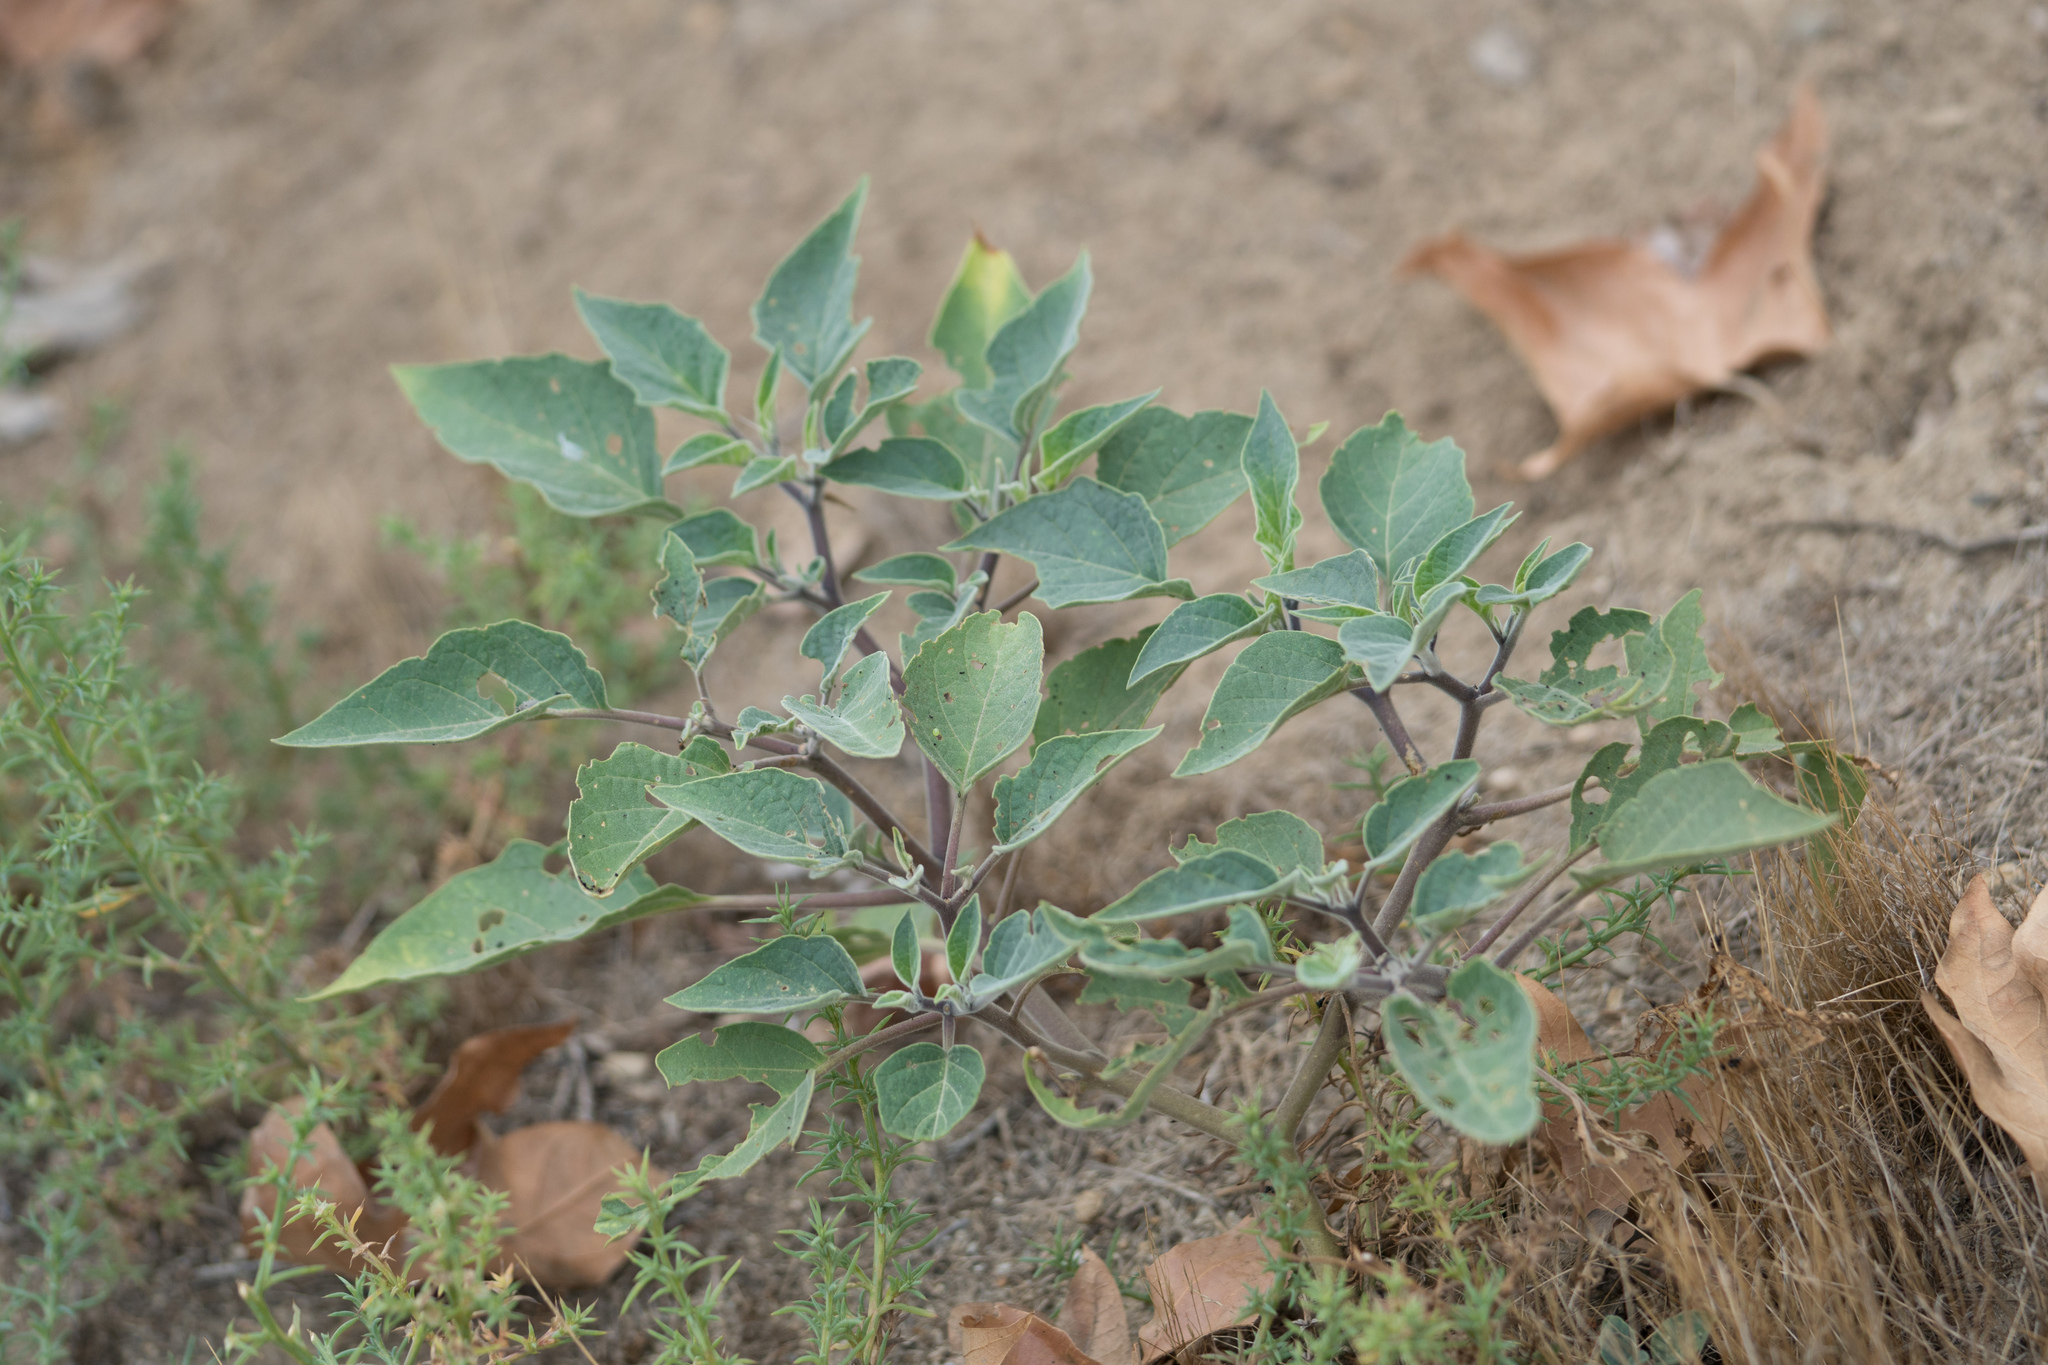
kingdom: Plantae
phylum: Tracheophyta
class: Magnoliopsida
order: Solanales
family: Solanaceae
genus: Datura
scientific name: Datura wrightii
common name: Sacred thorn-apple
